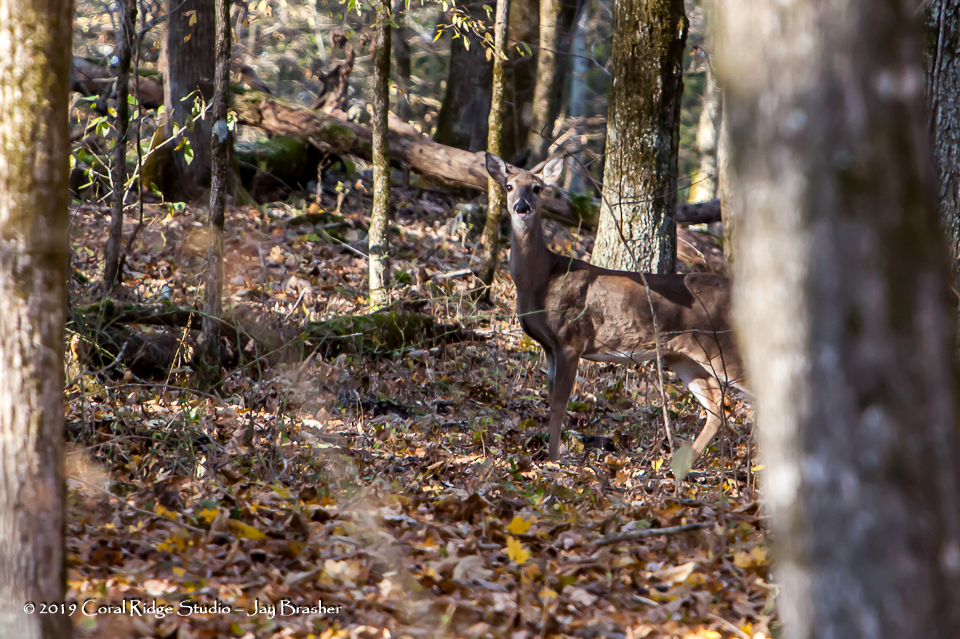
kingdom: Animalia
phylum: Chordata
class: Mammalia
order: Artiodactyla
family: Cervidae
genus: Odocoileus
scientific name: Odocoileus virginianus
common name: White-tailed deer
